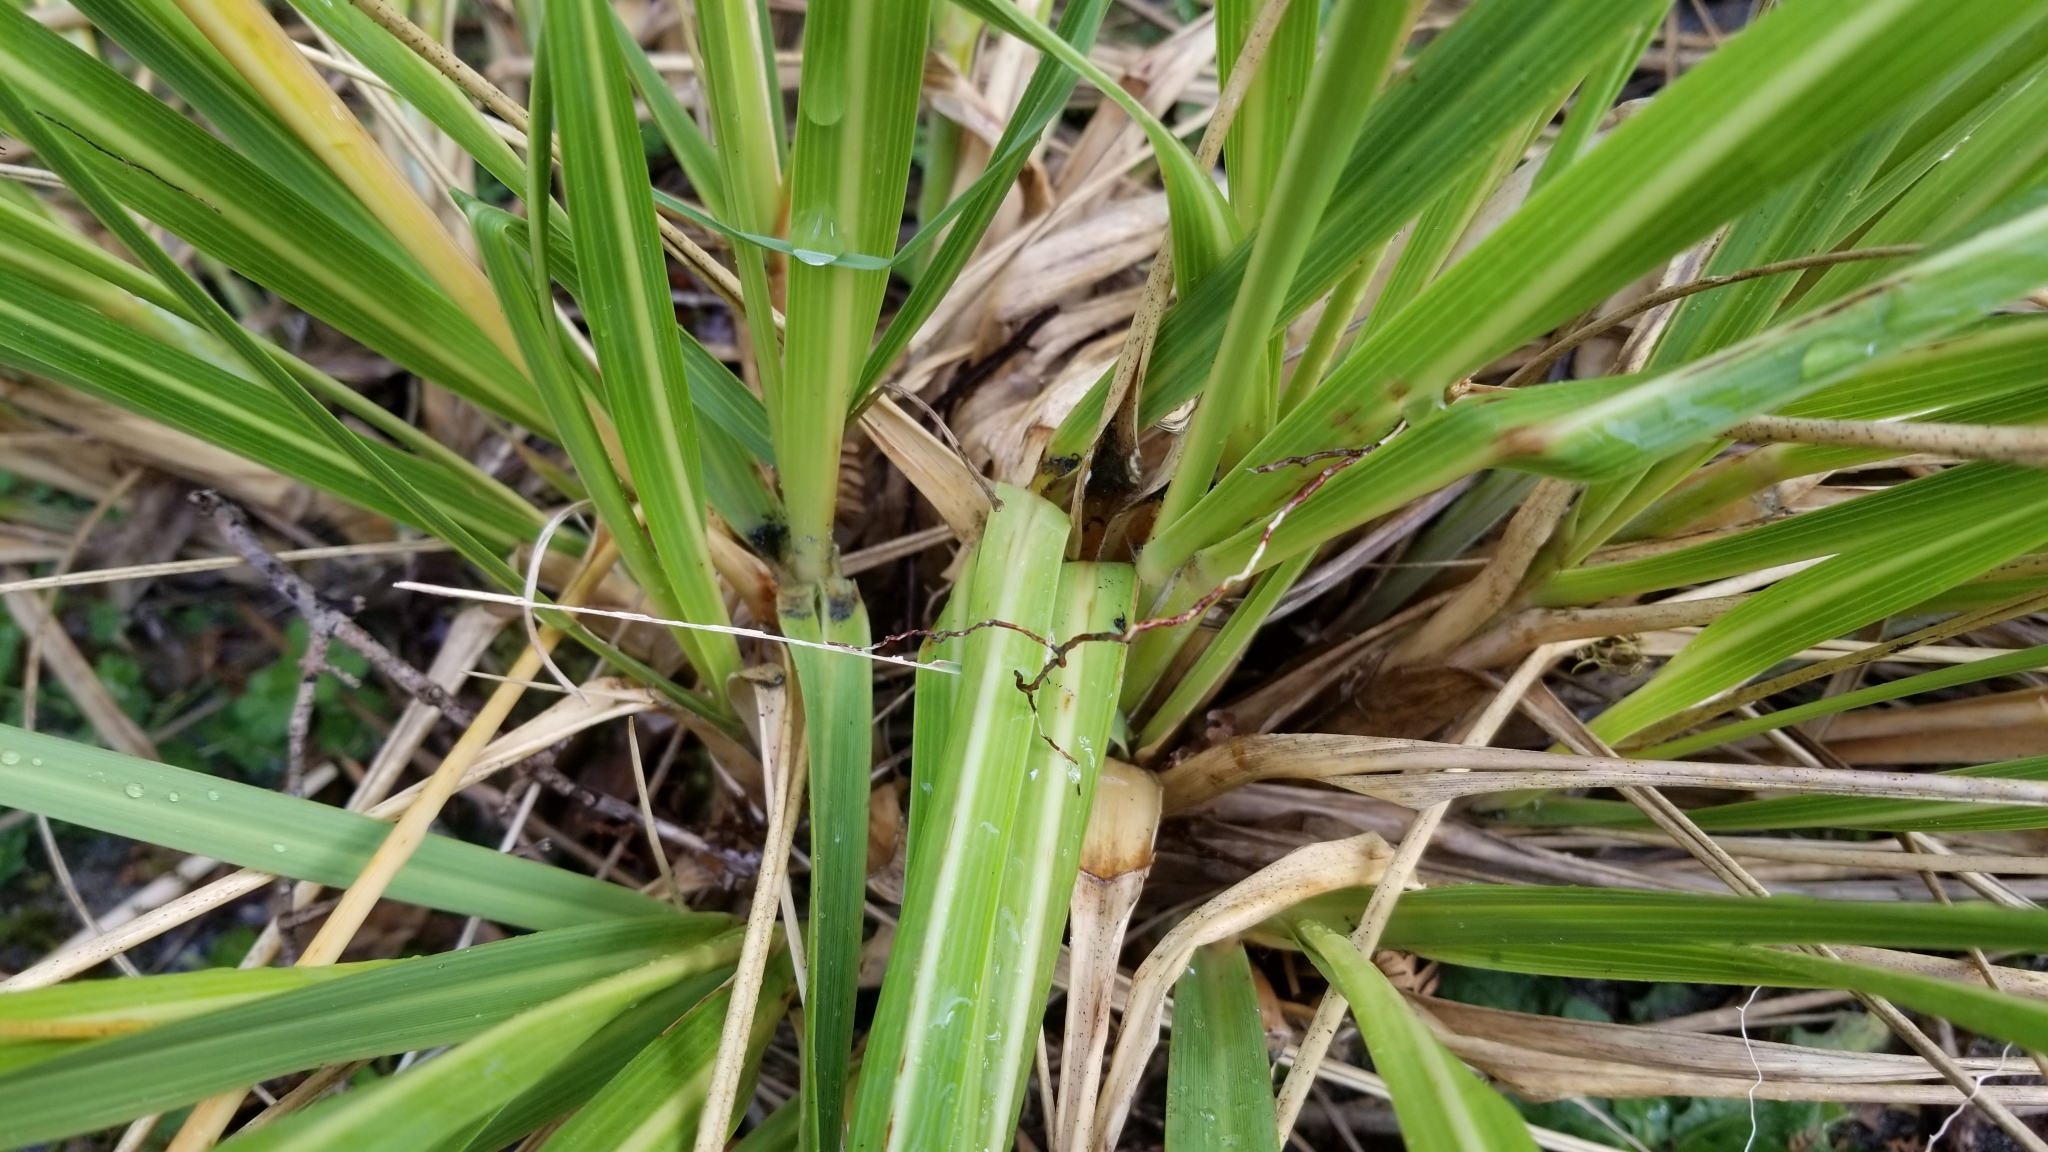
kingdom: Plantae
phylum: Tracheophyta
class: Liliopsida
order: Poales
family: Poaceae
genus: Austroderia
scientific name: Austroderia richardii
